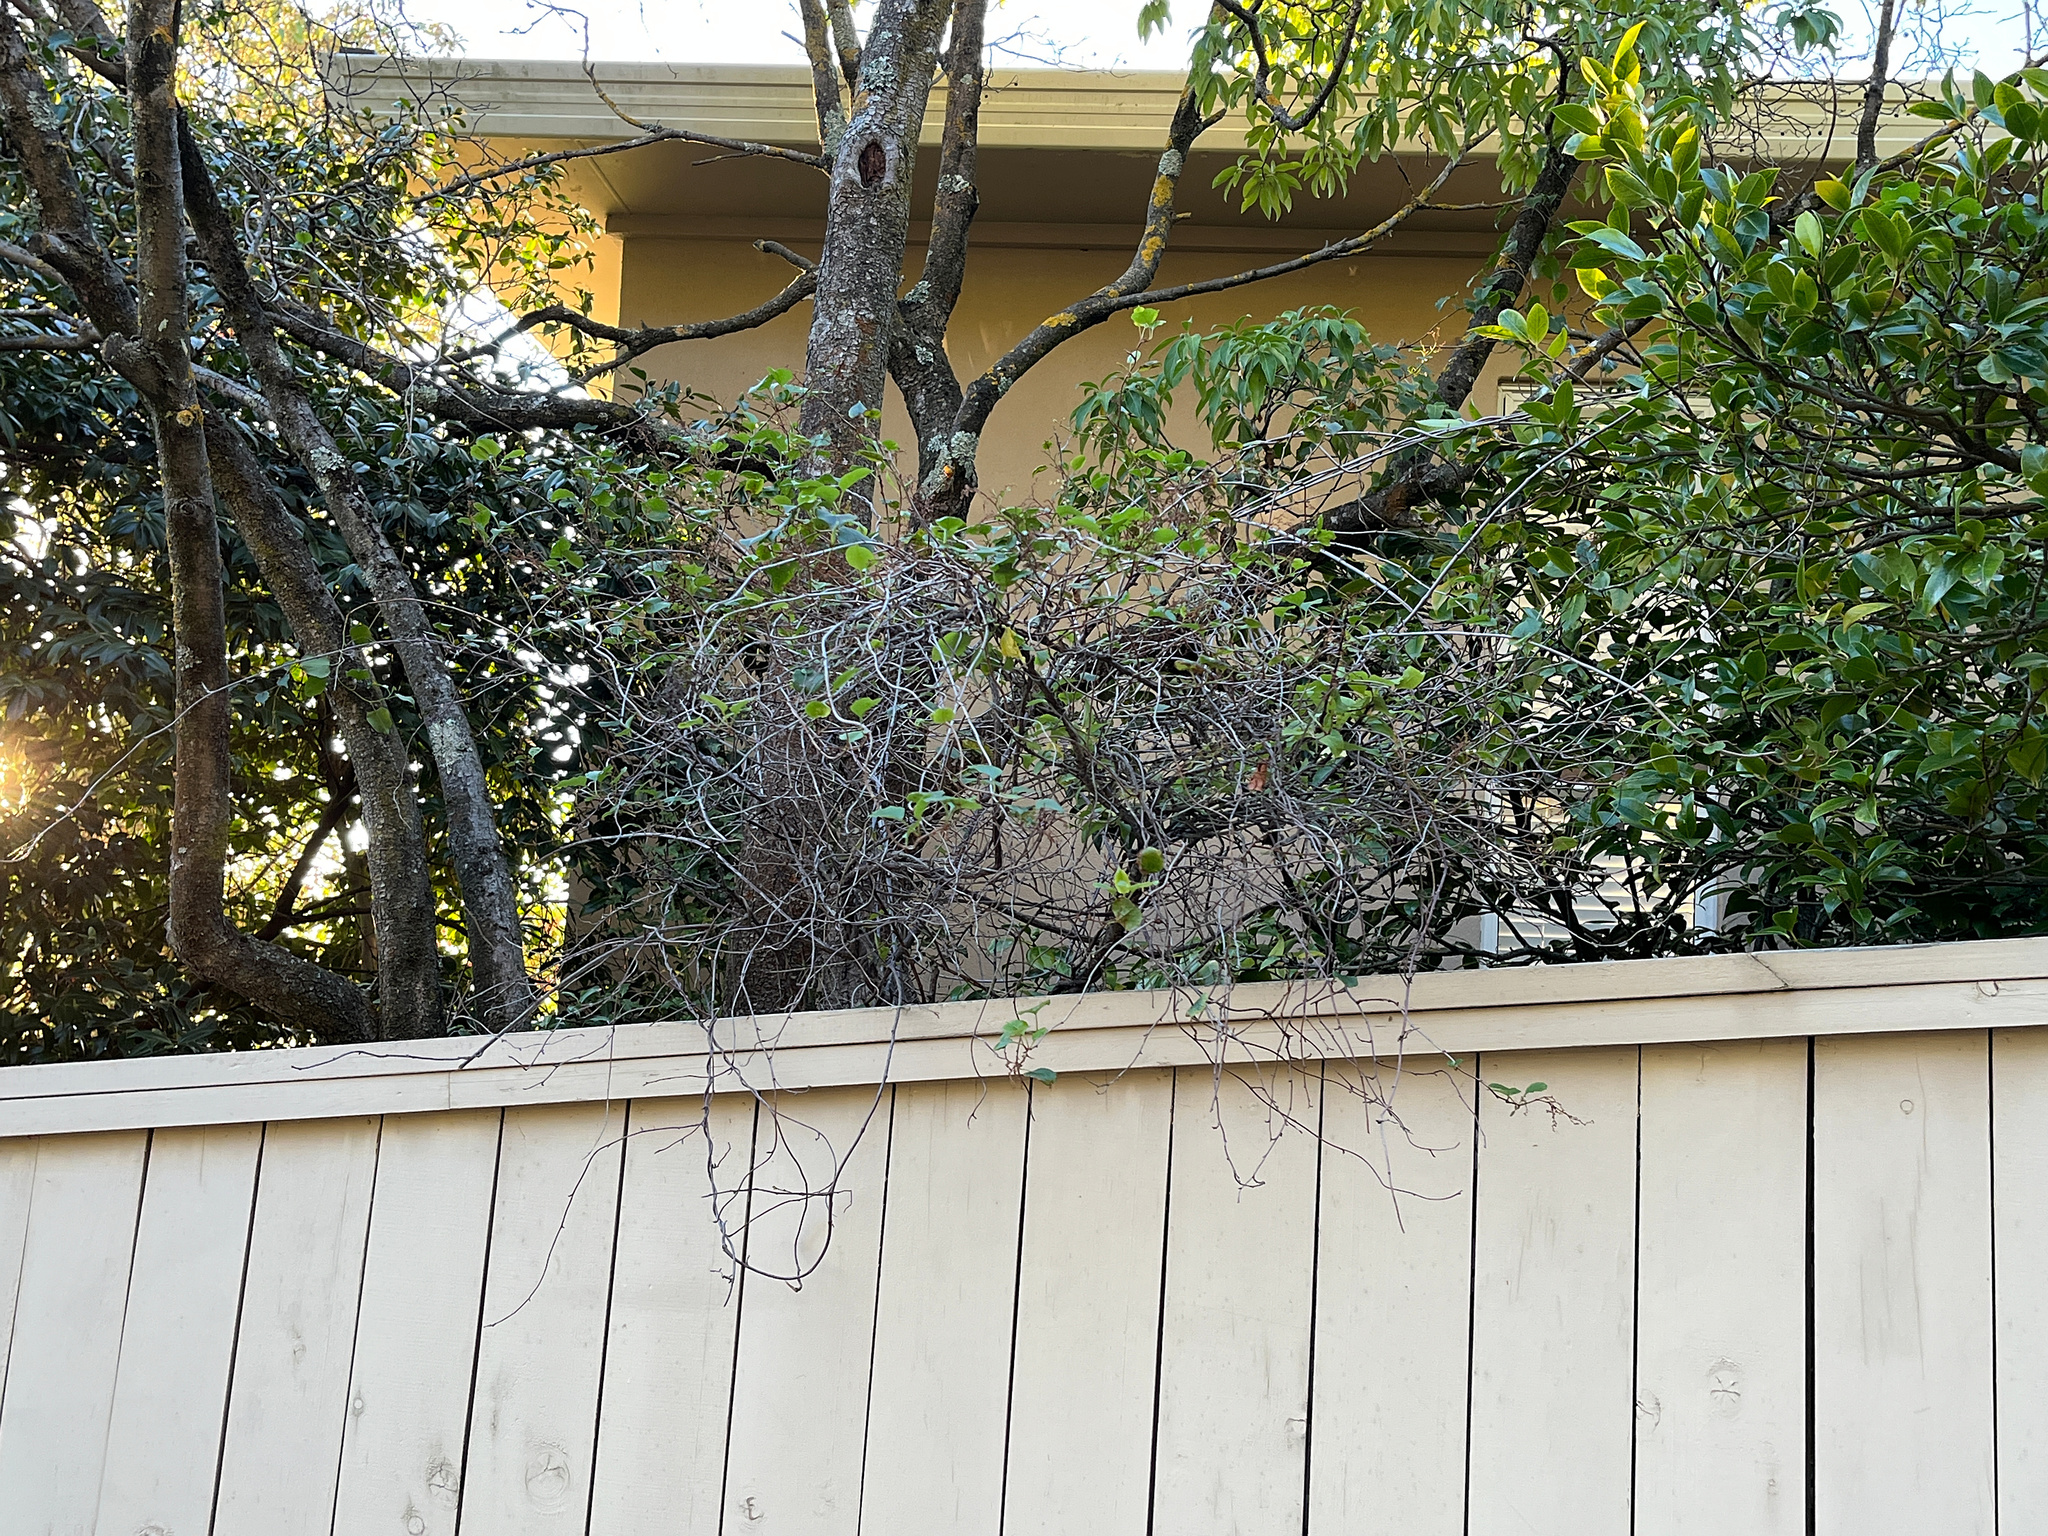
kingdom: Plantae
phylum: Tracheophyta
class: Magnoliopsida
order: Caryophyllales
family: Polygonaceae
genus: Muehlenbeckia
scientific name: Muehlenbeckia australis
